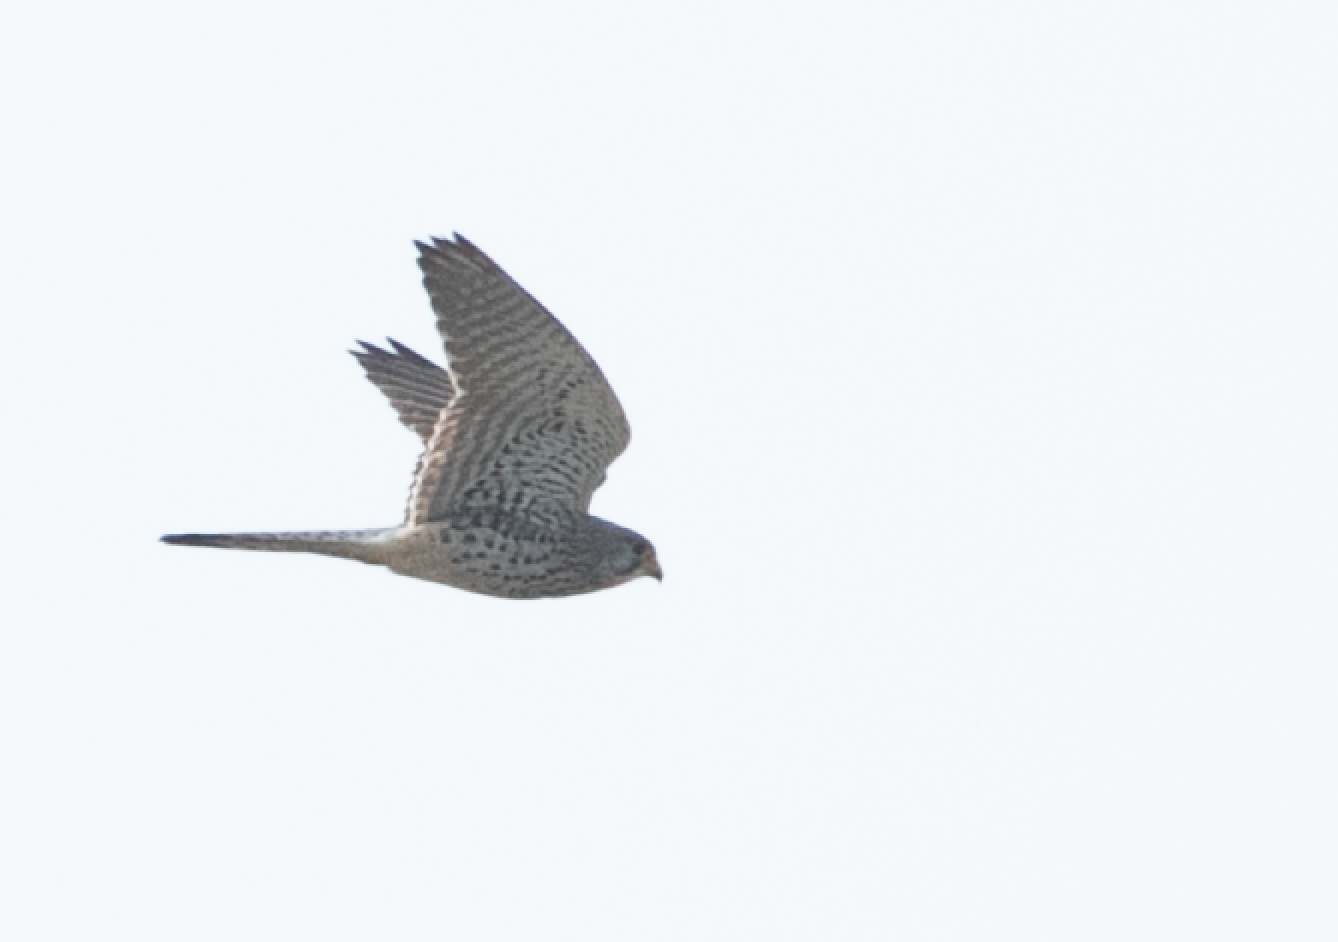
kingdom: Animalia
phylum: Chordata
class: Aves
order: Falconiformes
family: Falconidae
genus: Falco
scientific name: Falco tinnunculus
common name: Common kestrel
